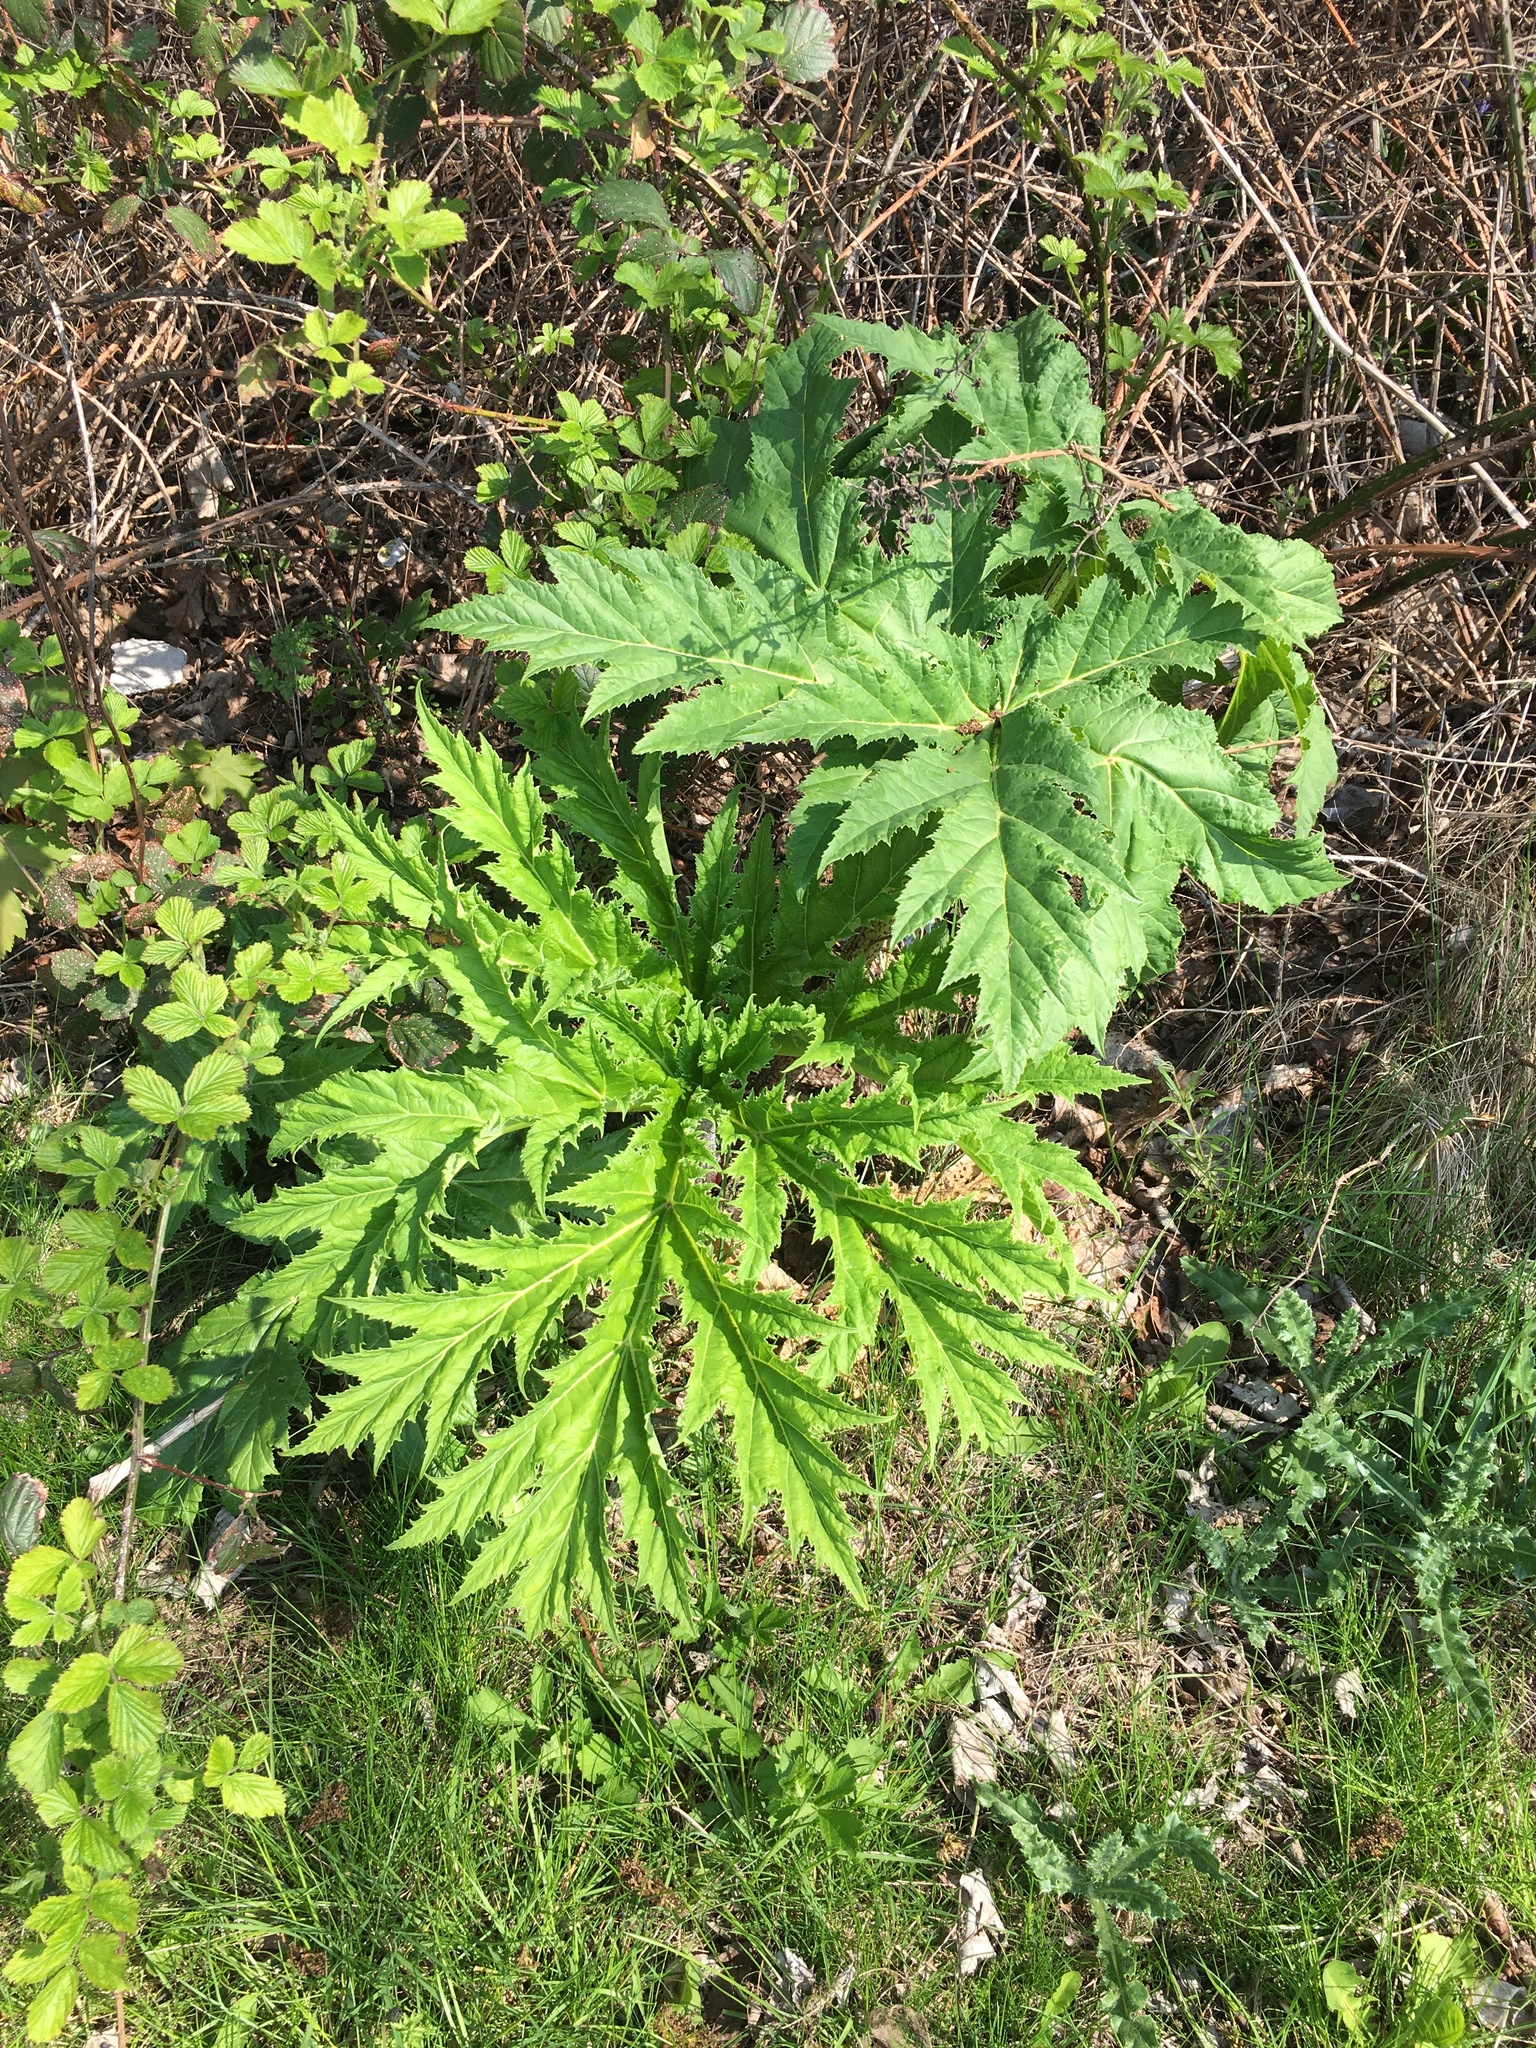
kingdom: Plantae
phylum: Tracheophyta
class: Magnoliopsida
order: Apiales
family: Apiaceae
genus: Heracleum
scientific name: Heracleum mantegazzianum
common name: Giant hogweed
